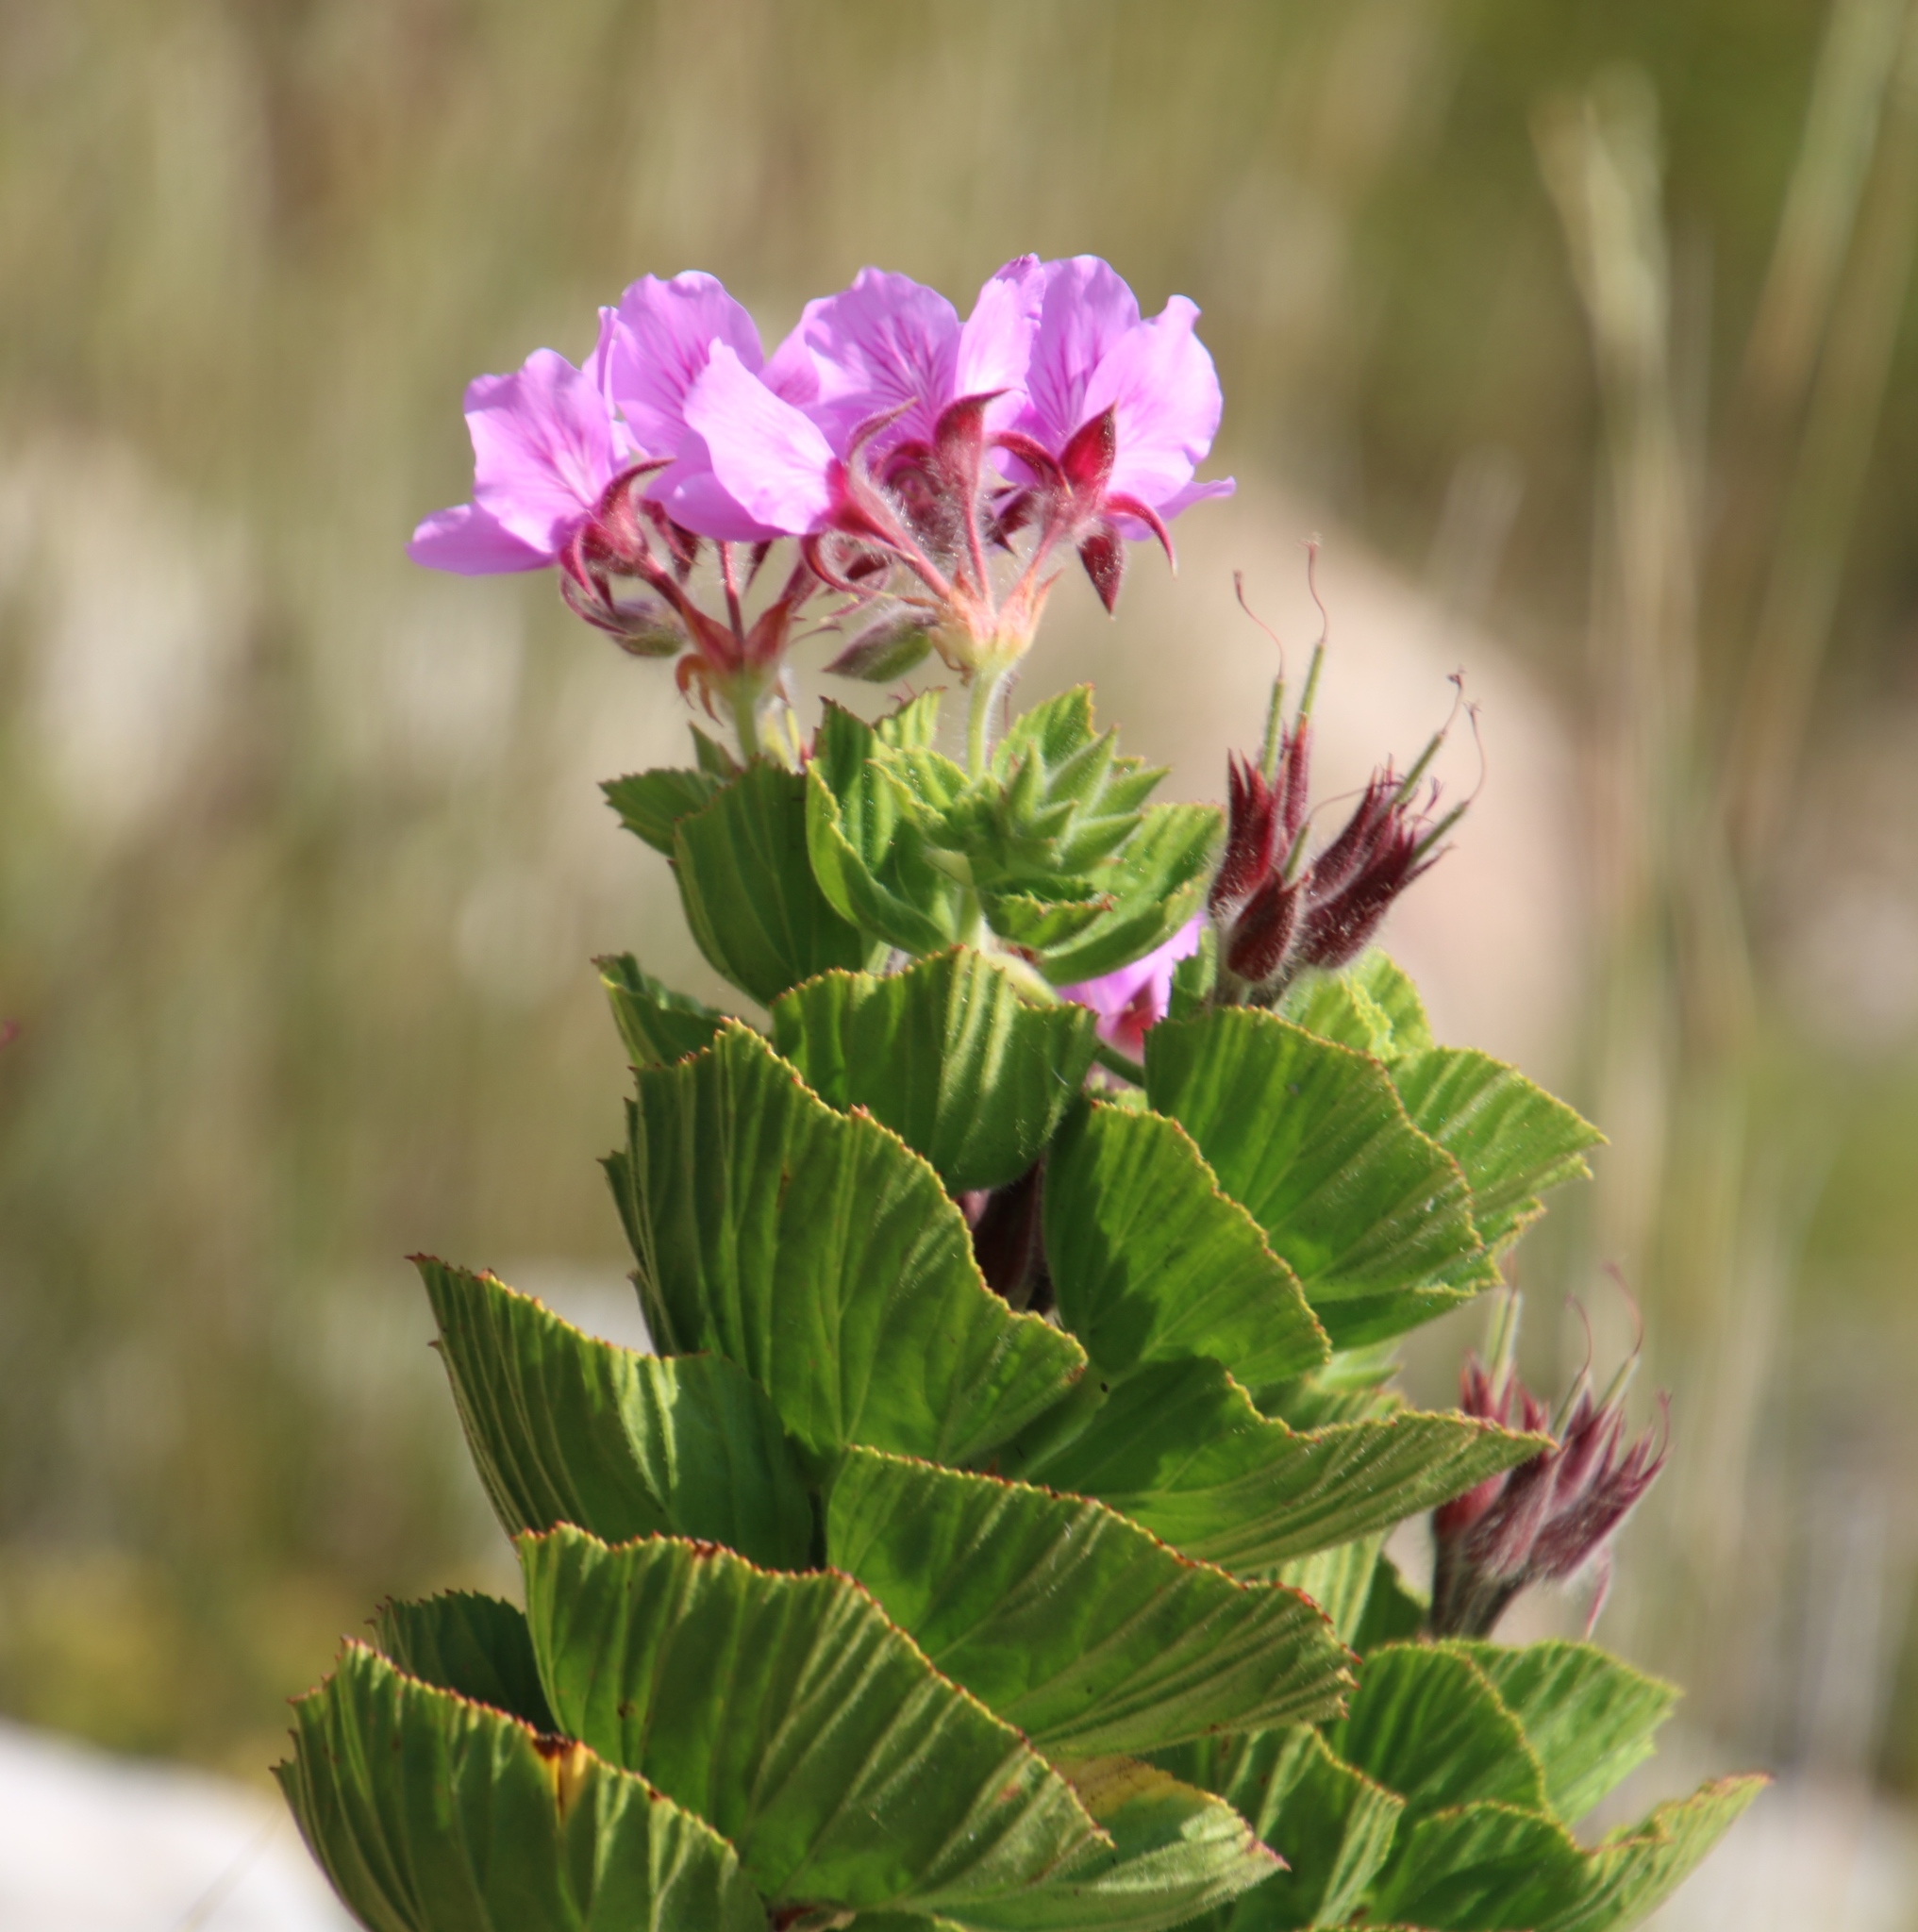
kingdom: Plantae
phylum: Tracheophyta
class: Magnoliopsida
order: Geraniales
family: Geraniaceae
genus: Pelargonium
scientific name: Pelargonium cucullatum
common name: Tree pelargonium
